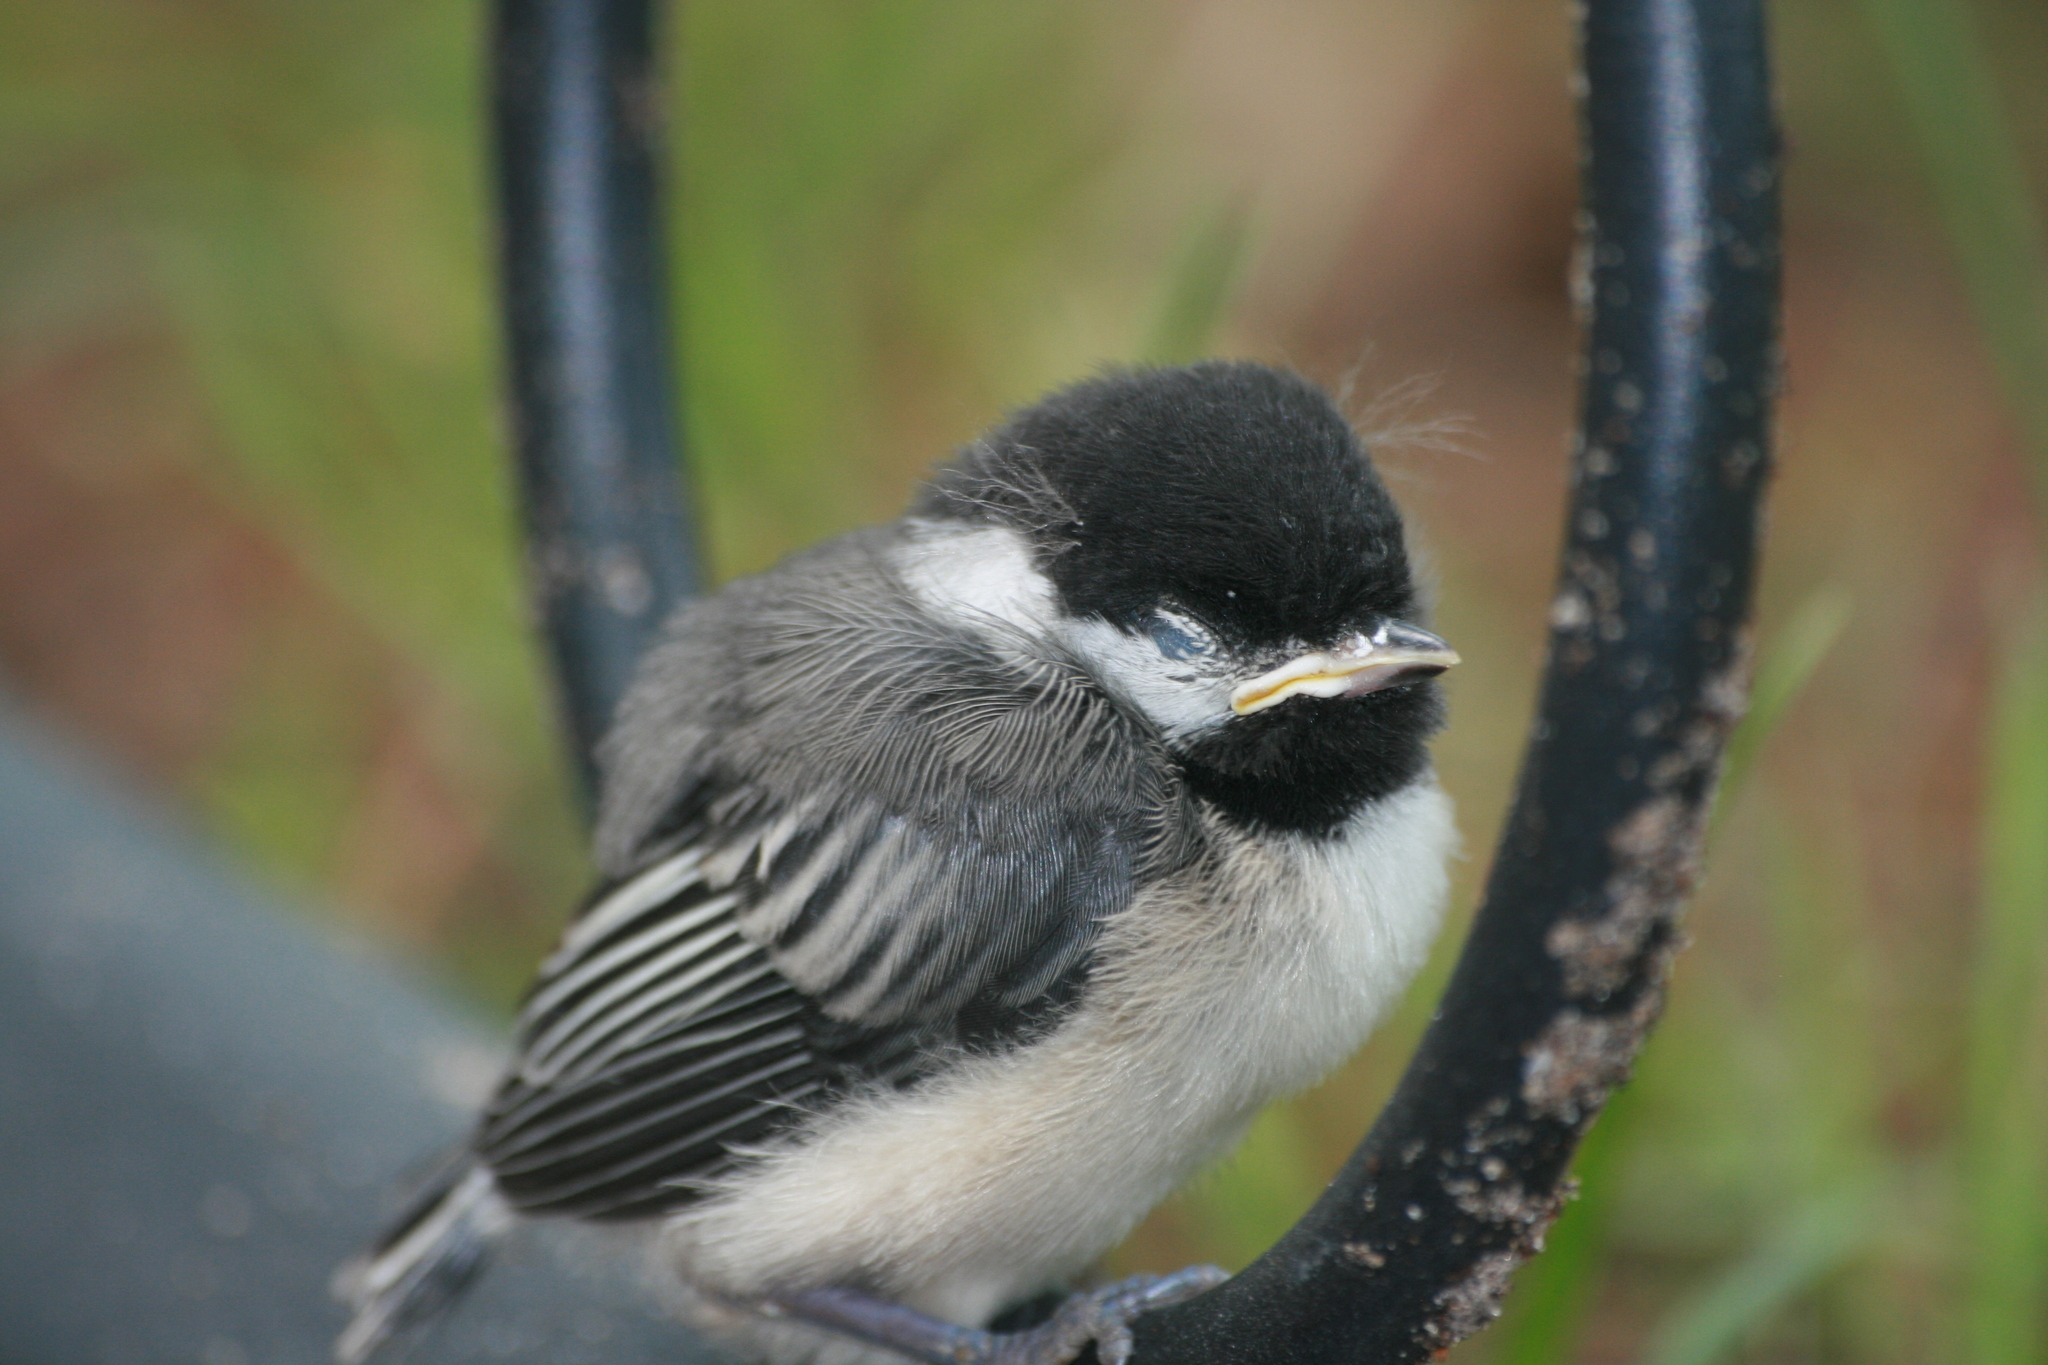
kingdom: Animalia
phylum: Chordata
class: Aves
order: Passeriformes
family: Paridae
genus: Poecile
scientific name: Poecile atricapillus
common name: Black-capped chickadee
